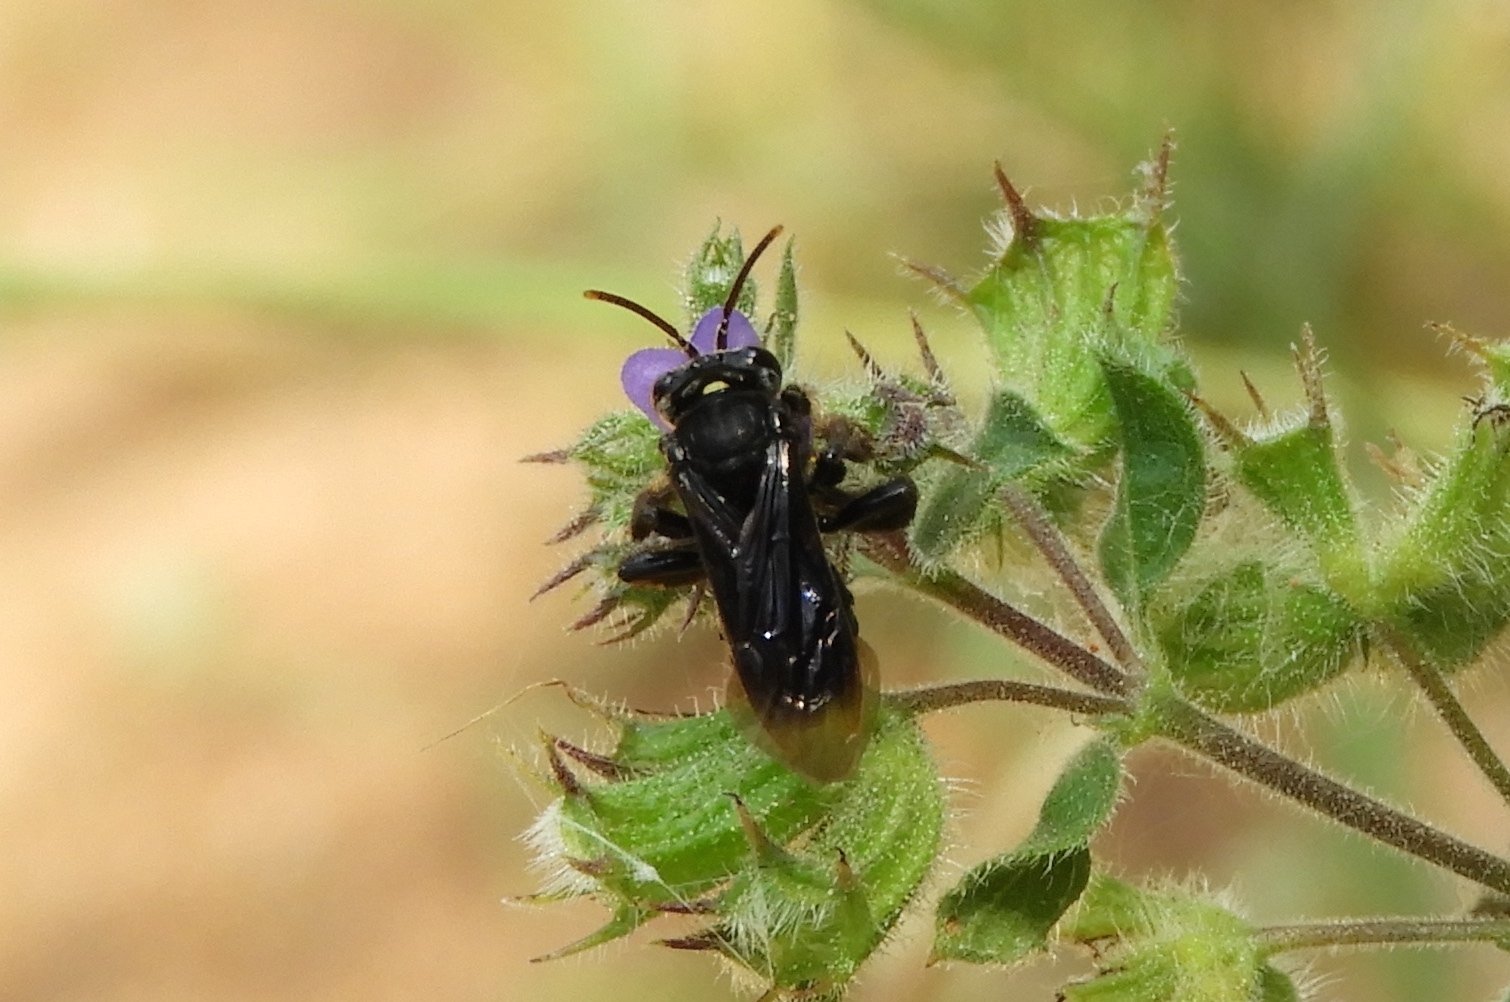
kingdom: Animalia
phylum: Arthropoda
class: Insecta
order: Hymenoptera
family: Apidae
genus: Paratetrapedia
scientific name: Paratetrapedia
